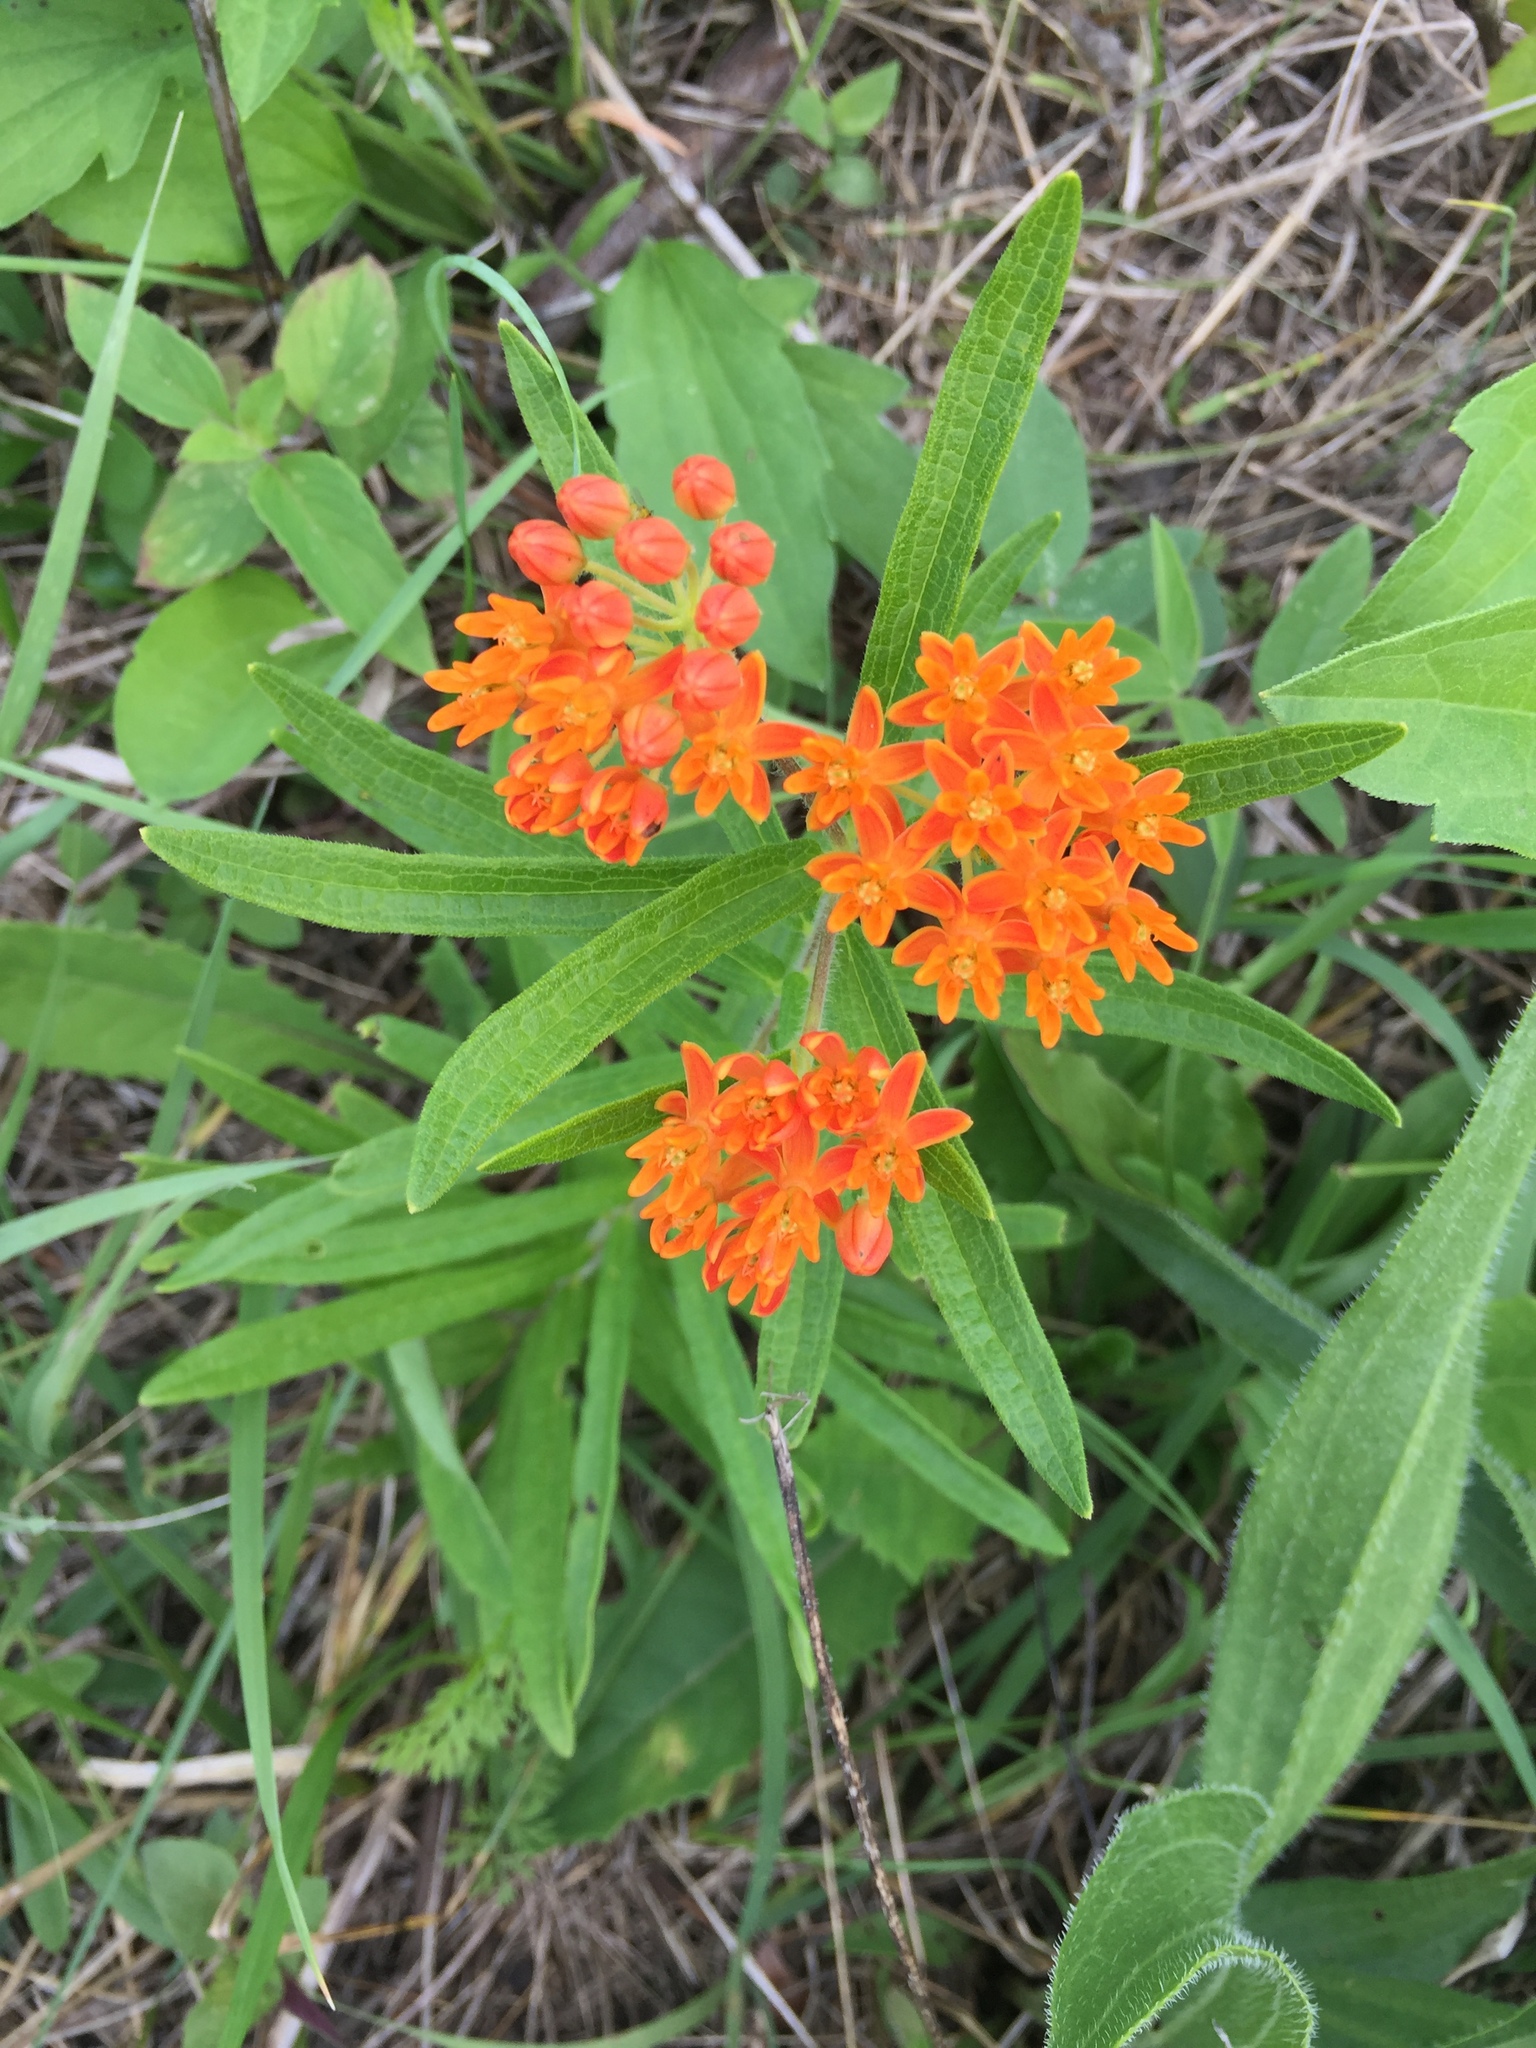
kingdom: Plantae
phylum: Tracheophyta
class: Magnoliopsida
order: Gentianales
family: Apocynaceae
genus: Asclepias
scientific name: Asclepias tuberosa
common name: Butterfly milkweed
